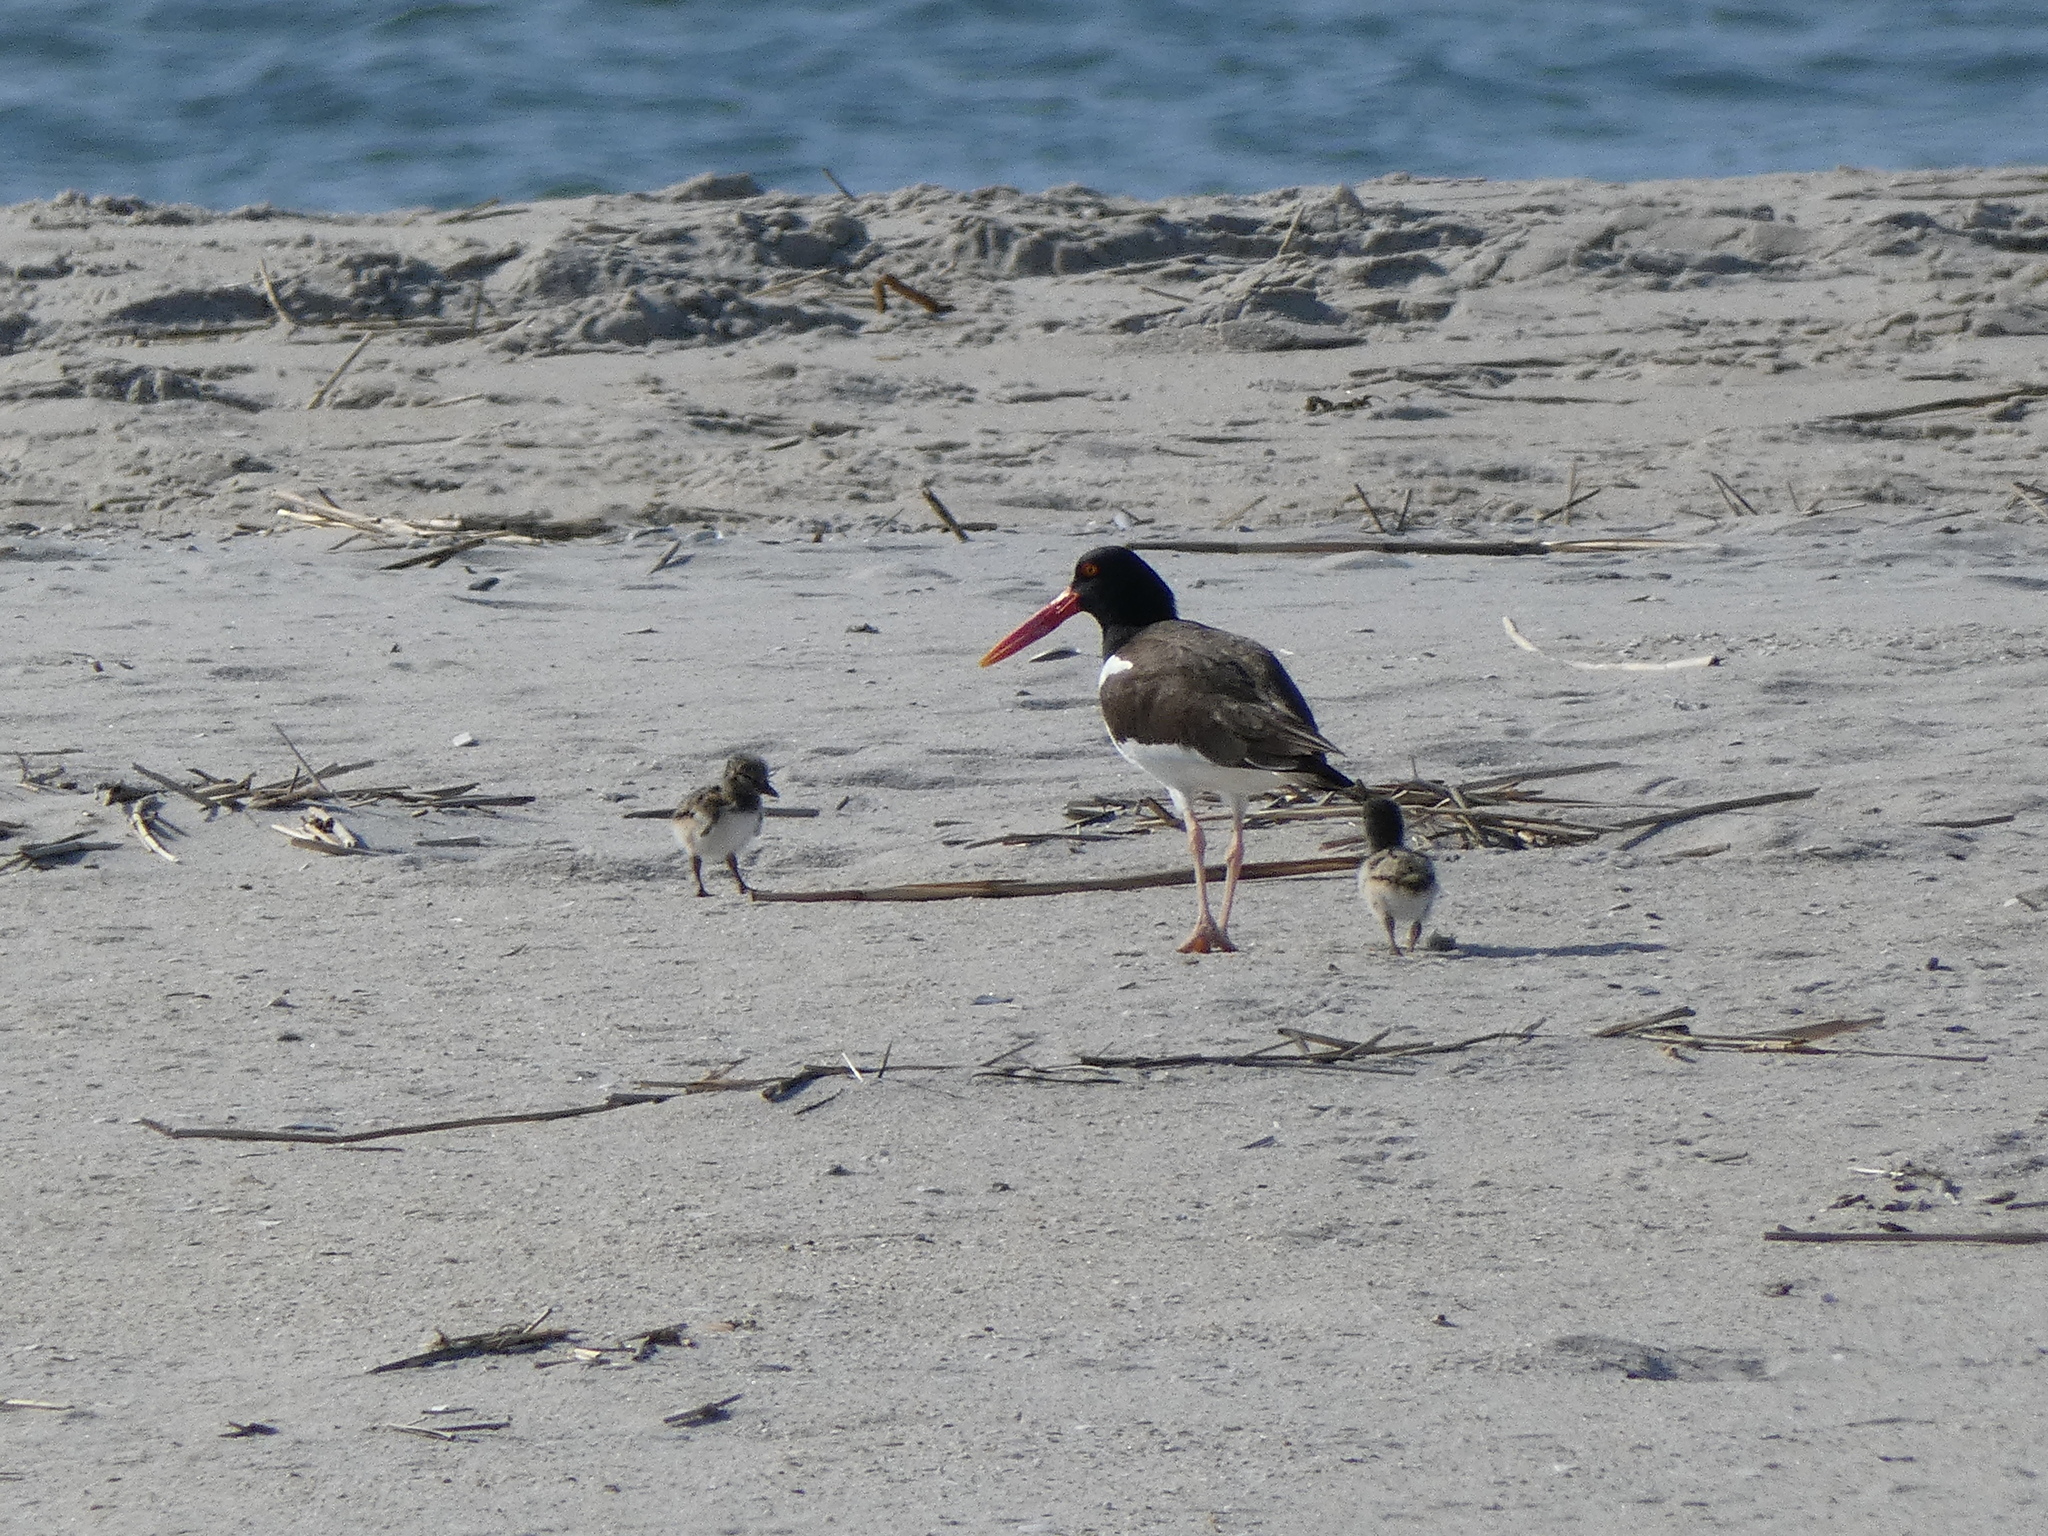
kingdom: Animalia
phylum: Chordata
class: Aves
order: Charadriiformes
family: Haematopodidae
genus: Haematopus
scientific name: Haematopus palliatus
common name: American oystercatcher
